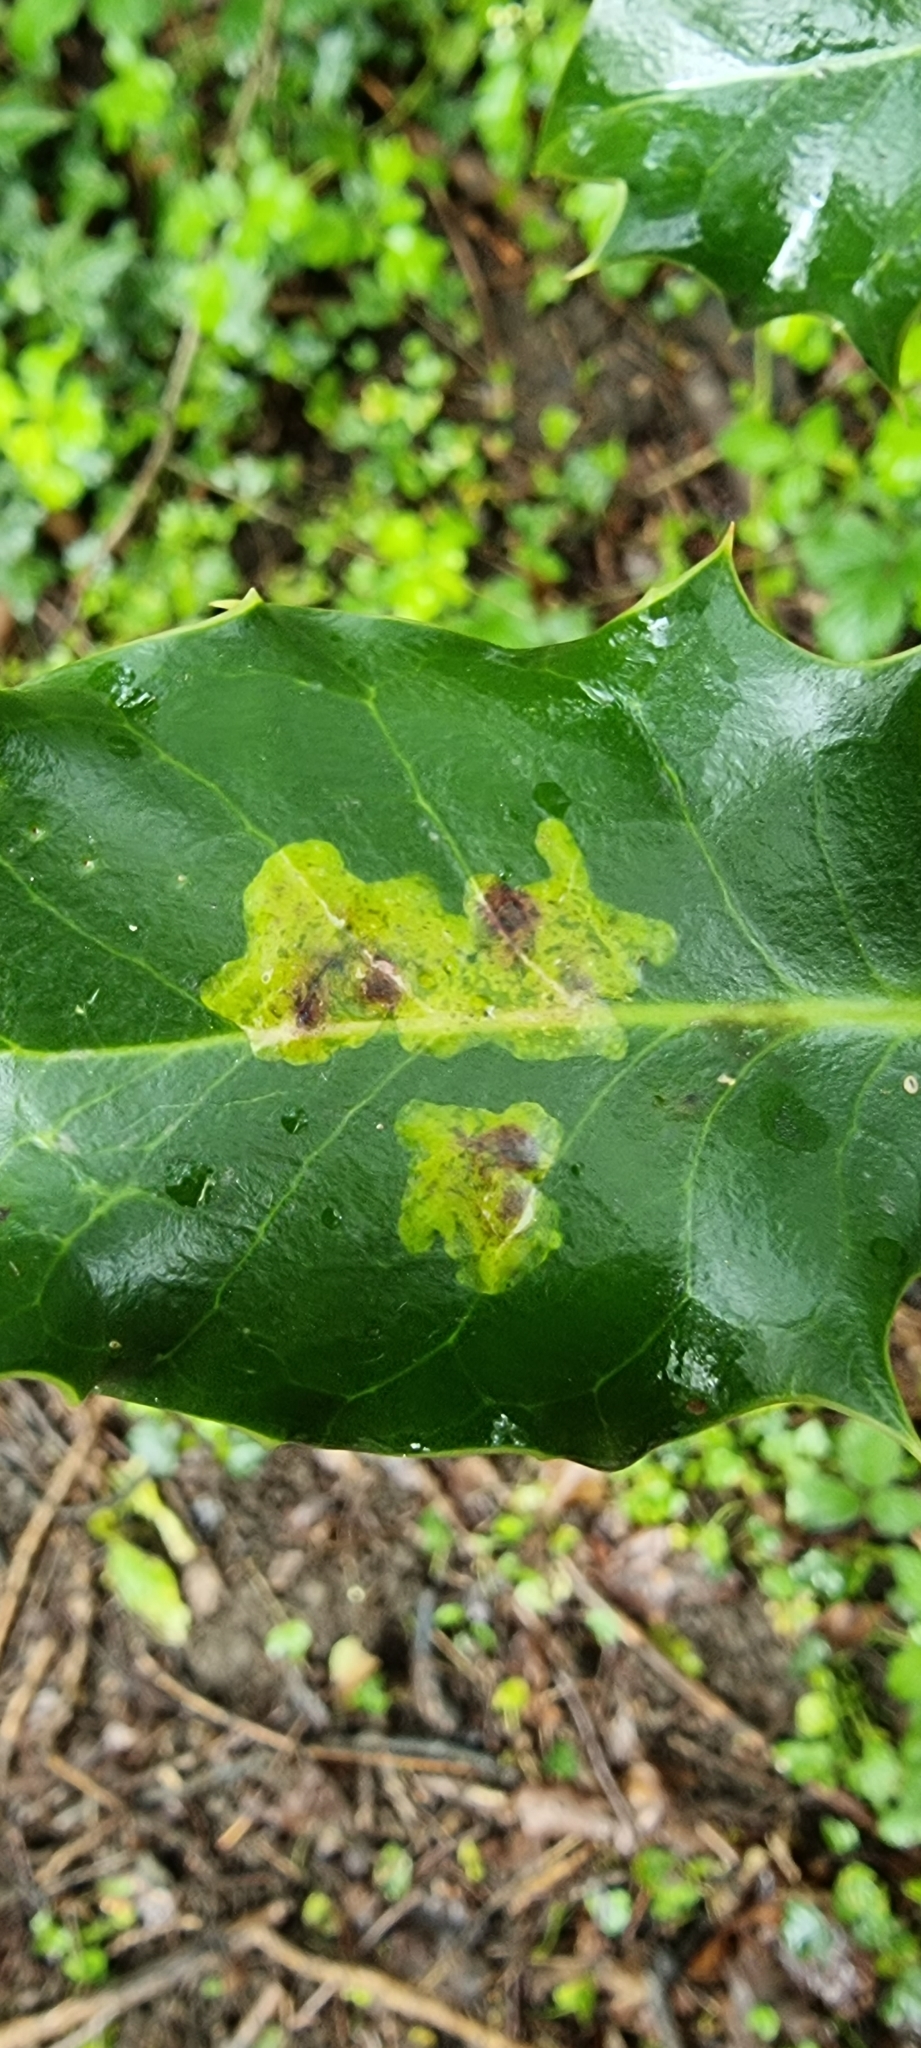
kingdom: Animalia
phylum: Arthropoda
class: Insecta
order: Diptera
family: Agromyzidae
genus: Phytomyza
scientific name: Phytomyza ilicis
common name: Holly leafminer
